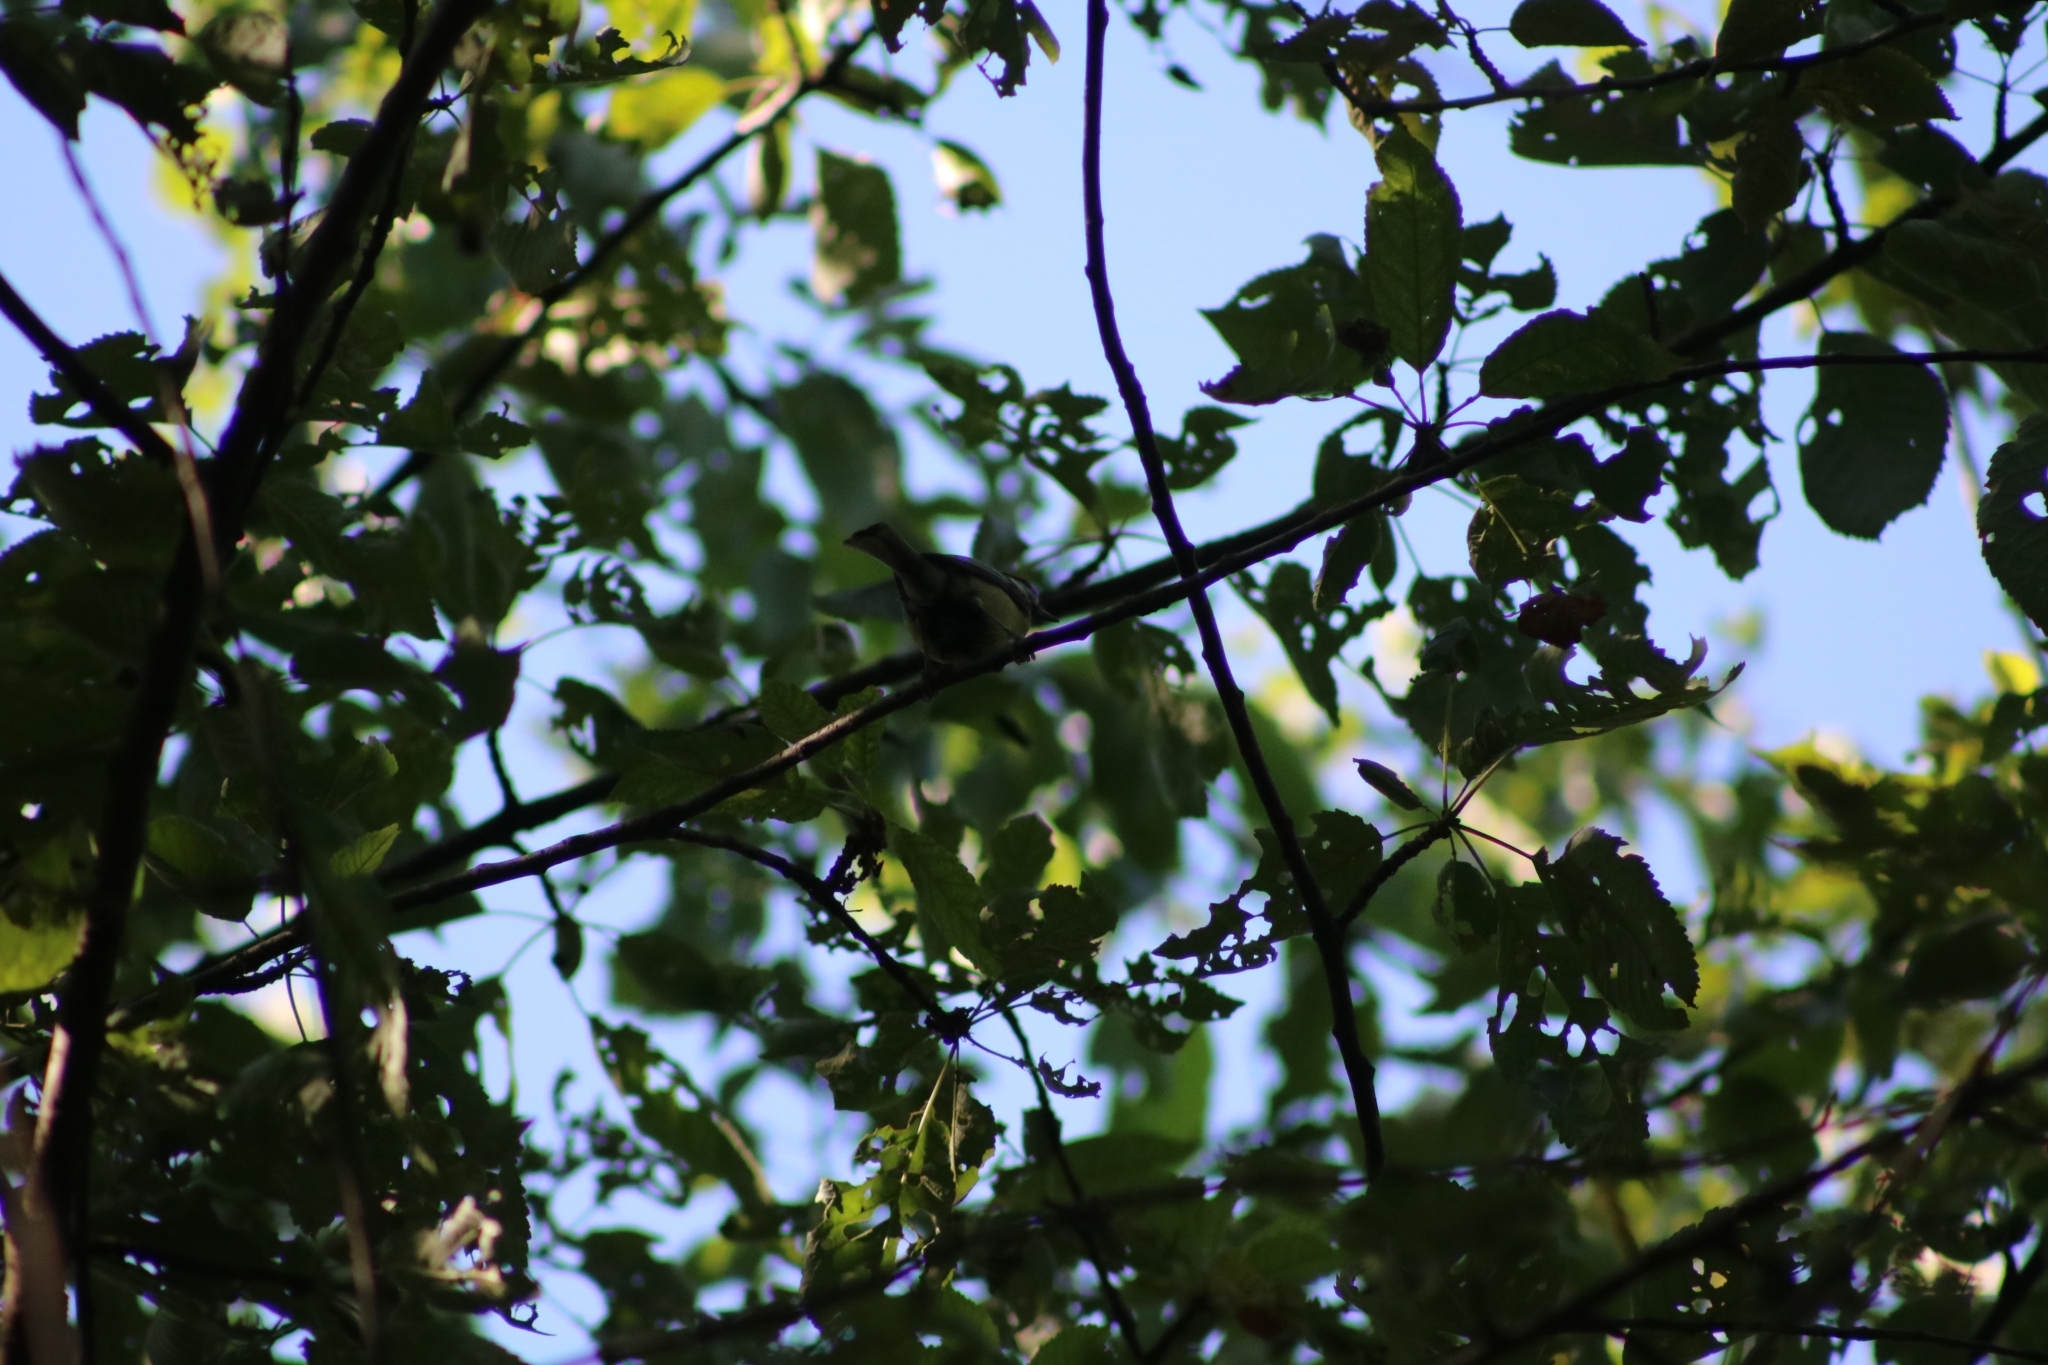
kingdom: Animalia
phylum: Chordata
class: Aves
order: Passeriformes
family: Paridae
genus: Parus
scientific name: Parus major
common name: Great tit
